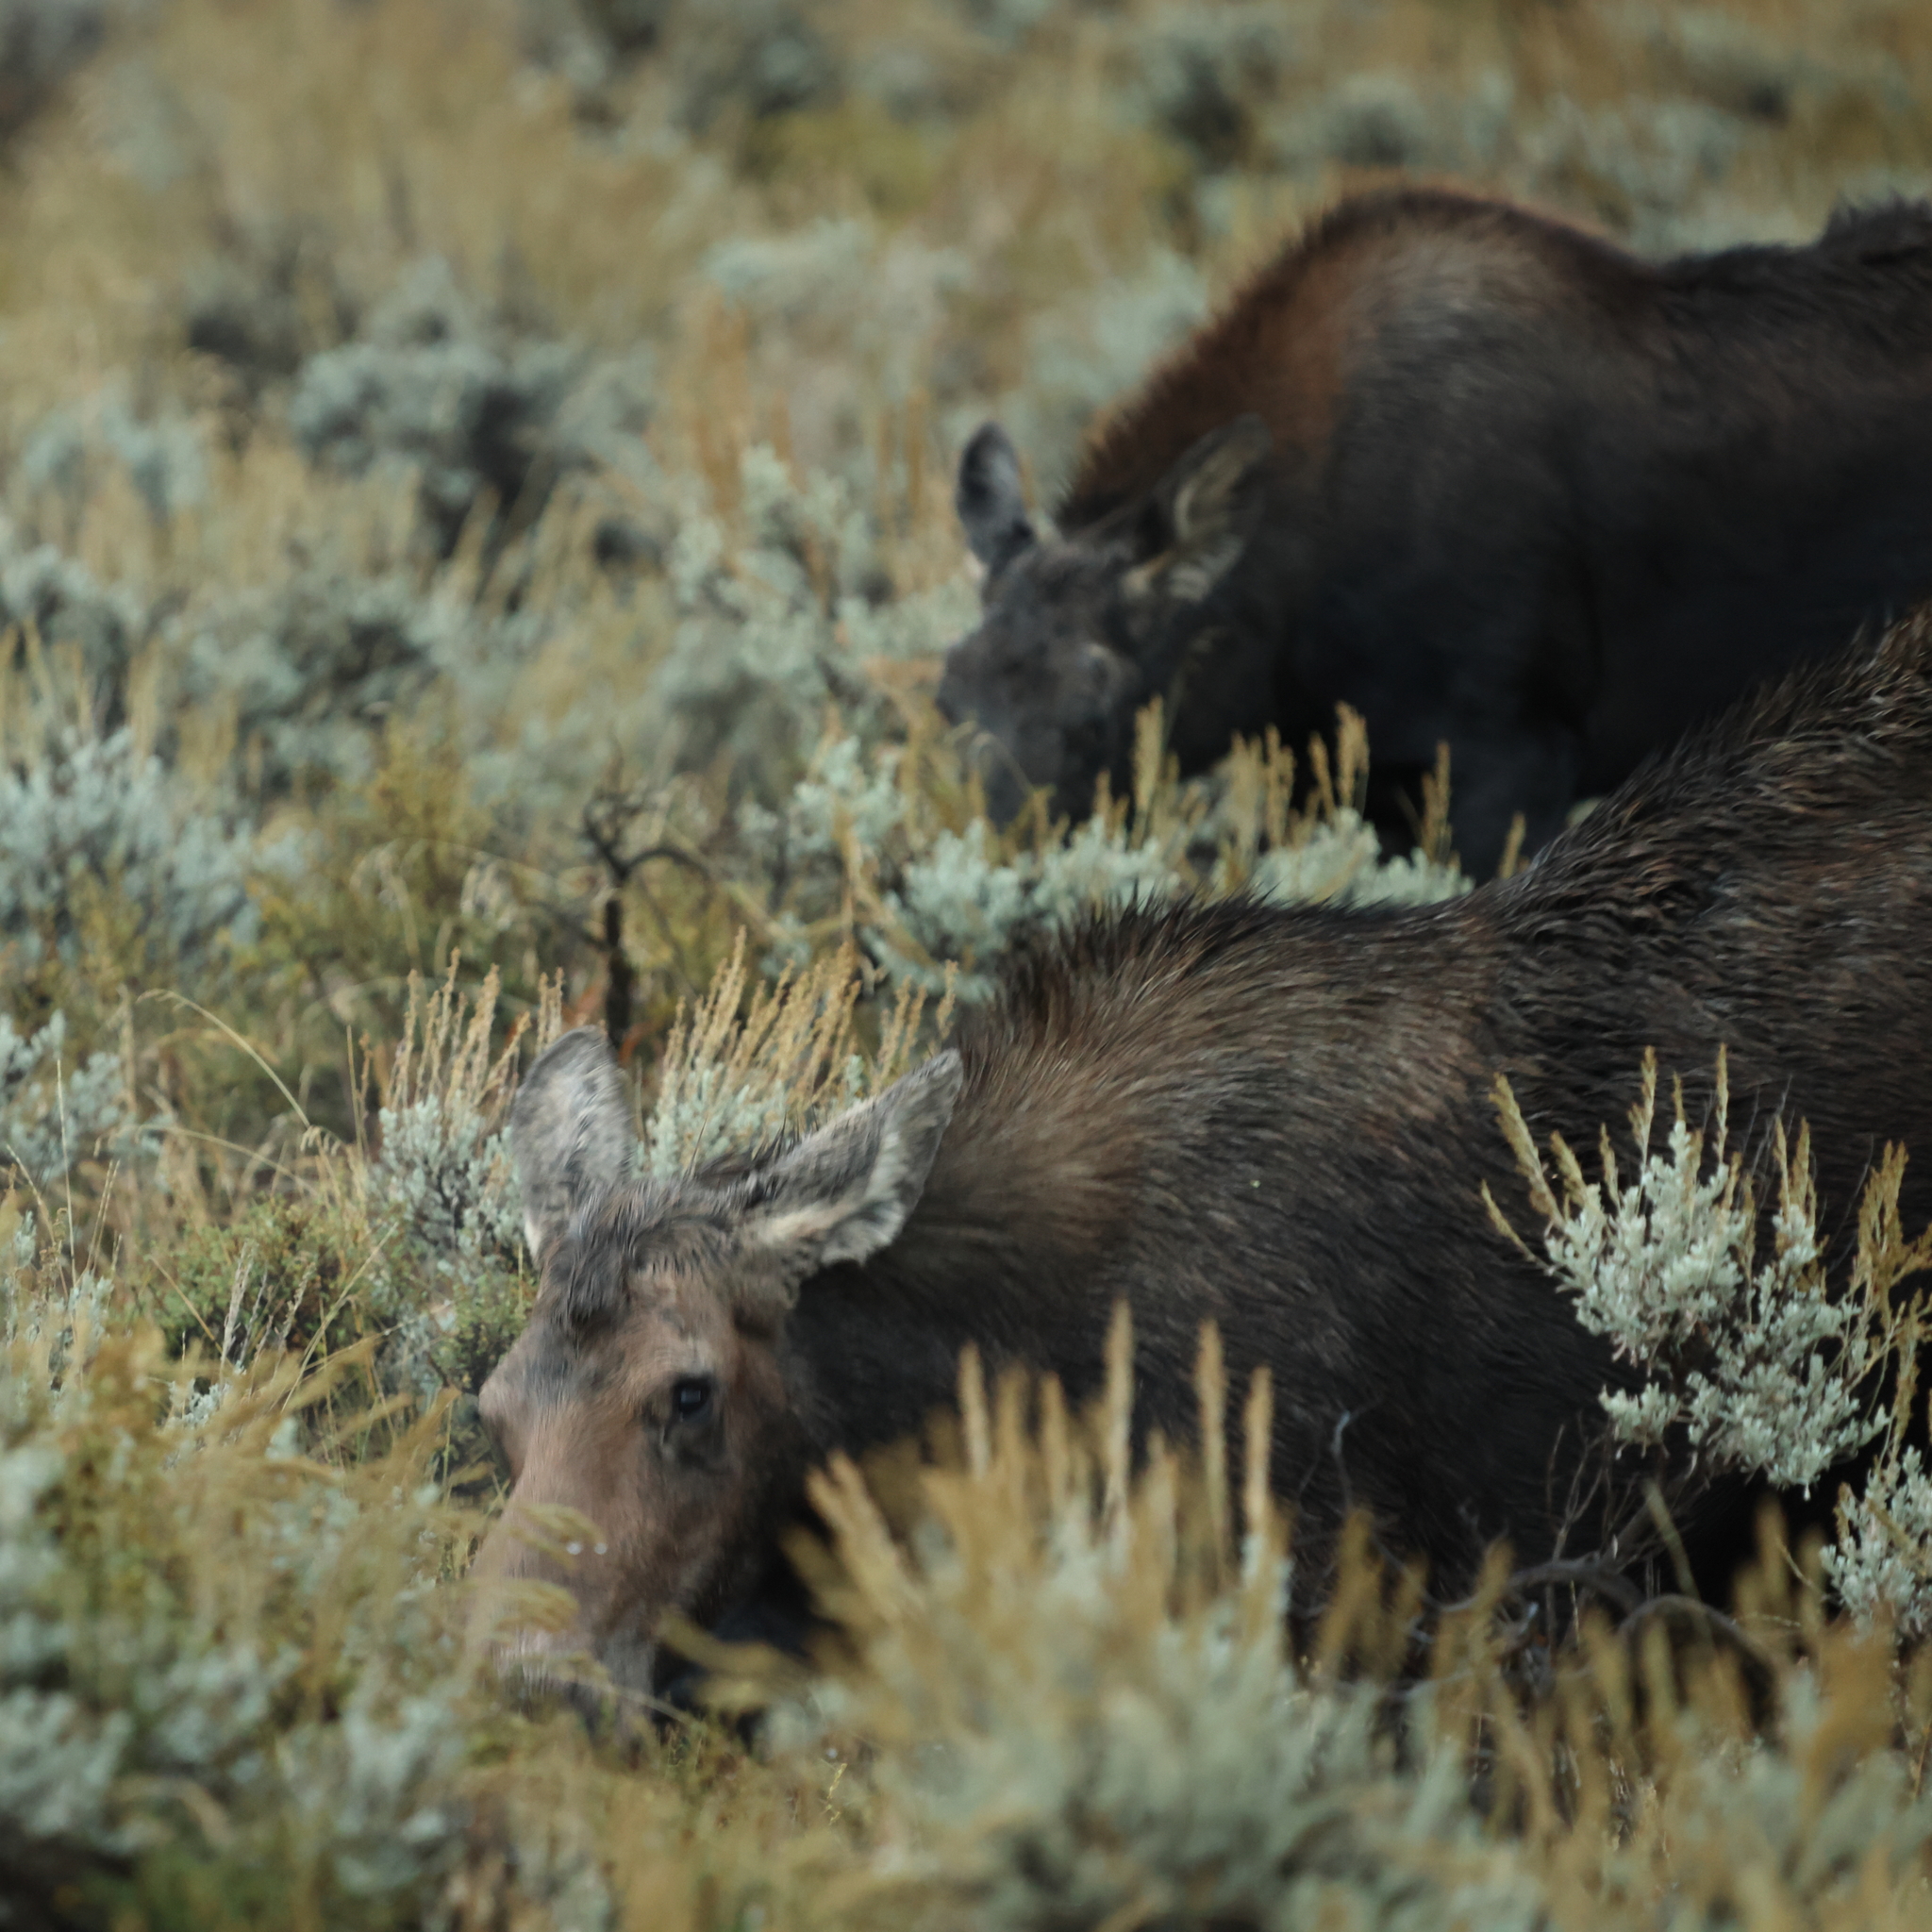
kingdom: Animalia
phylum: Chordata
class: Mammalia
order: Artiodactyla
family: Cervidae
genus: Alces
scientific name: Alces alces
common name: Moose
